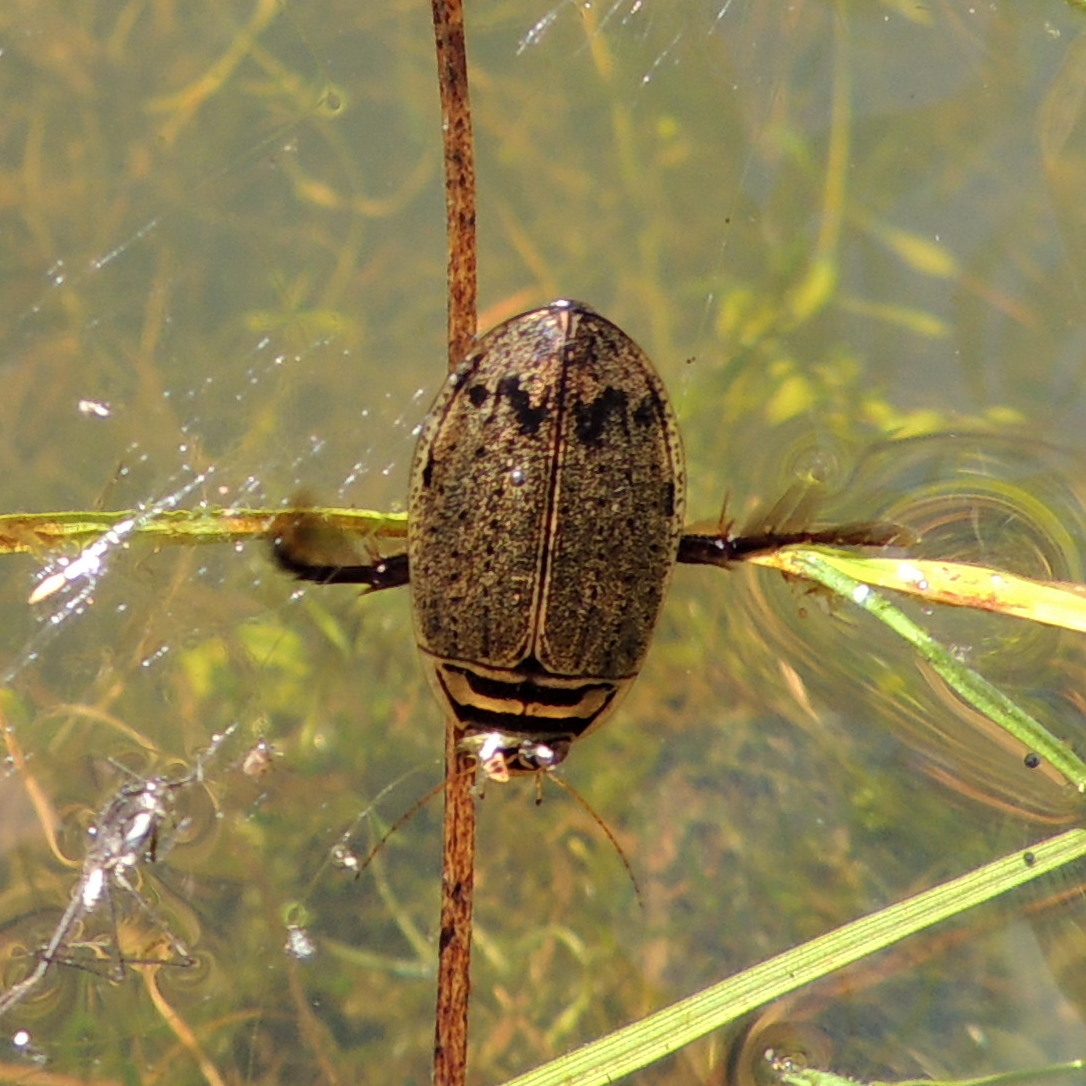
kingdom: Animalia
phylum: Arthropoda
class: Insecta
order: Coleoptera
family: Dytiscidae
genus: Acilius
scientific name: Acilius sulcatus
